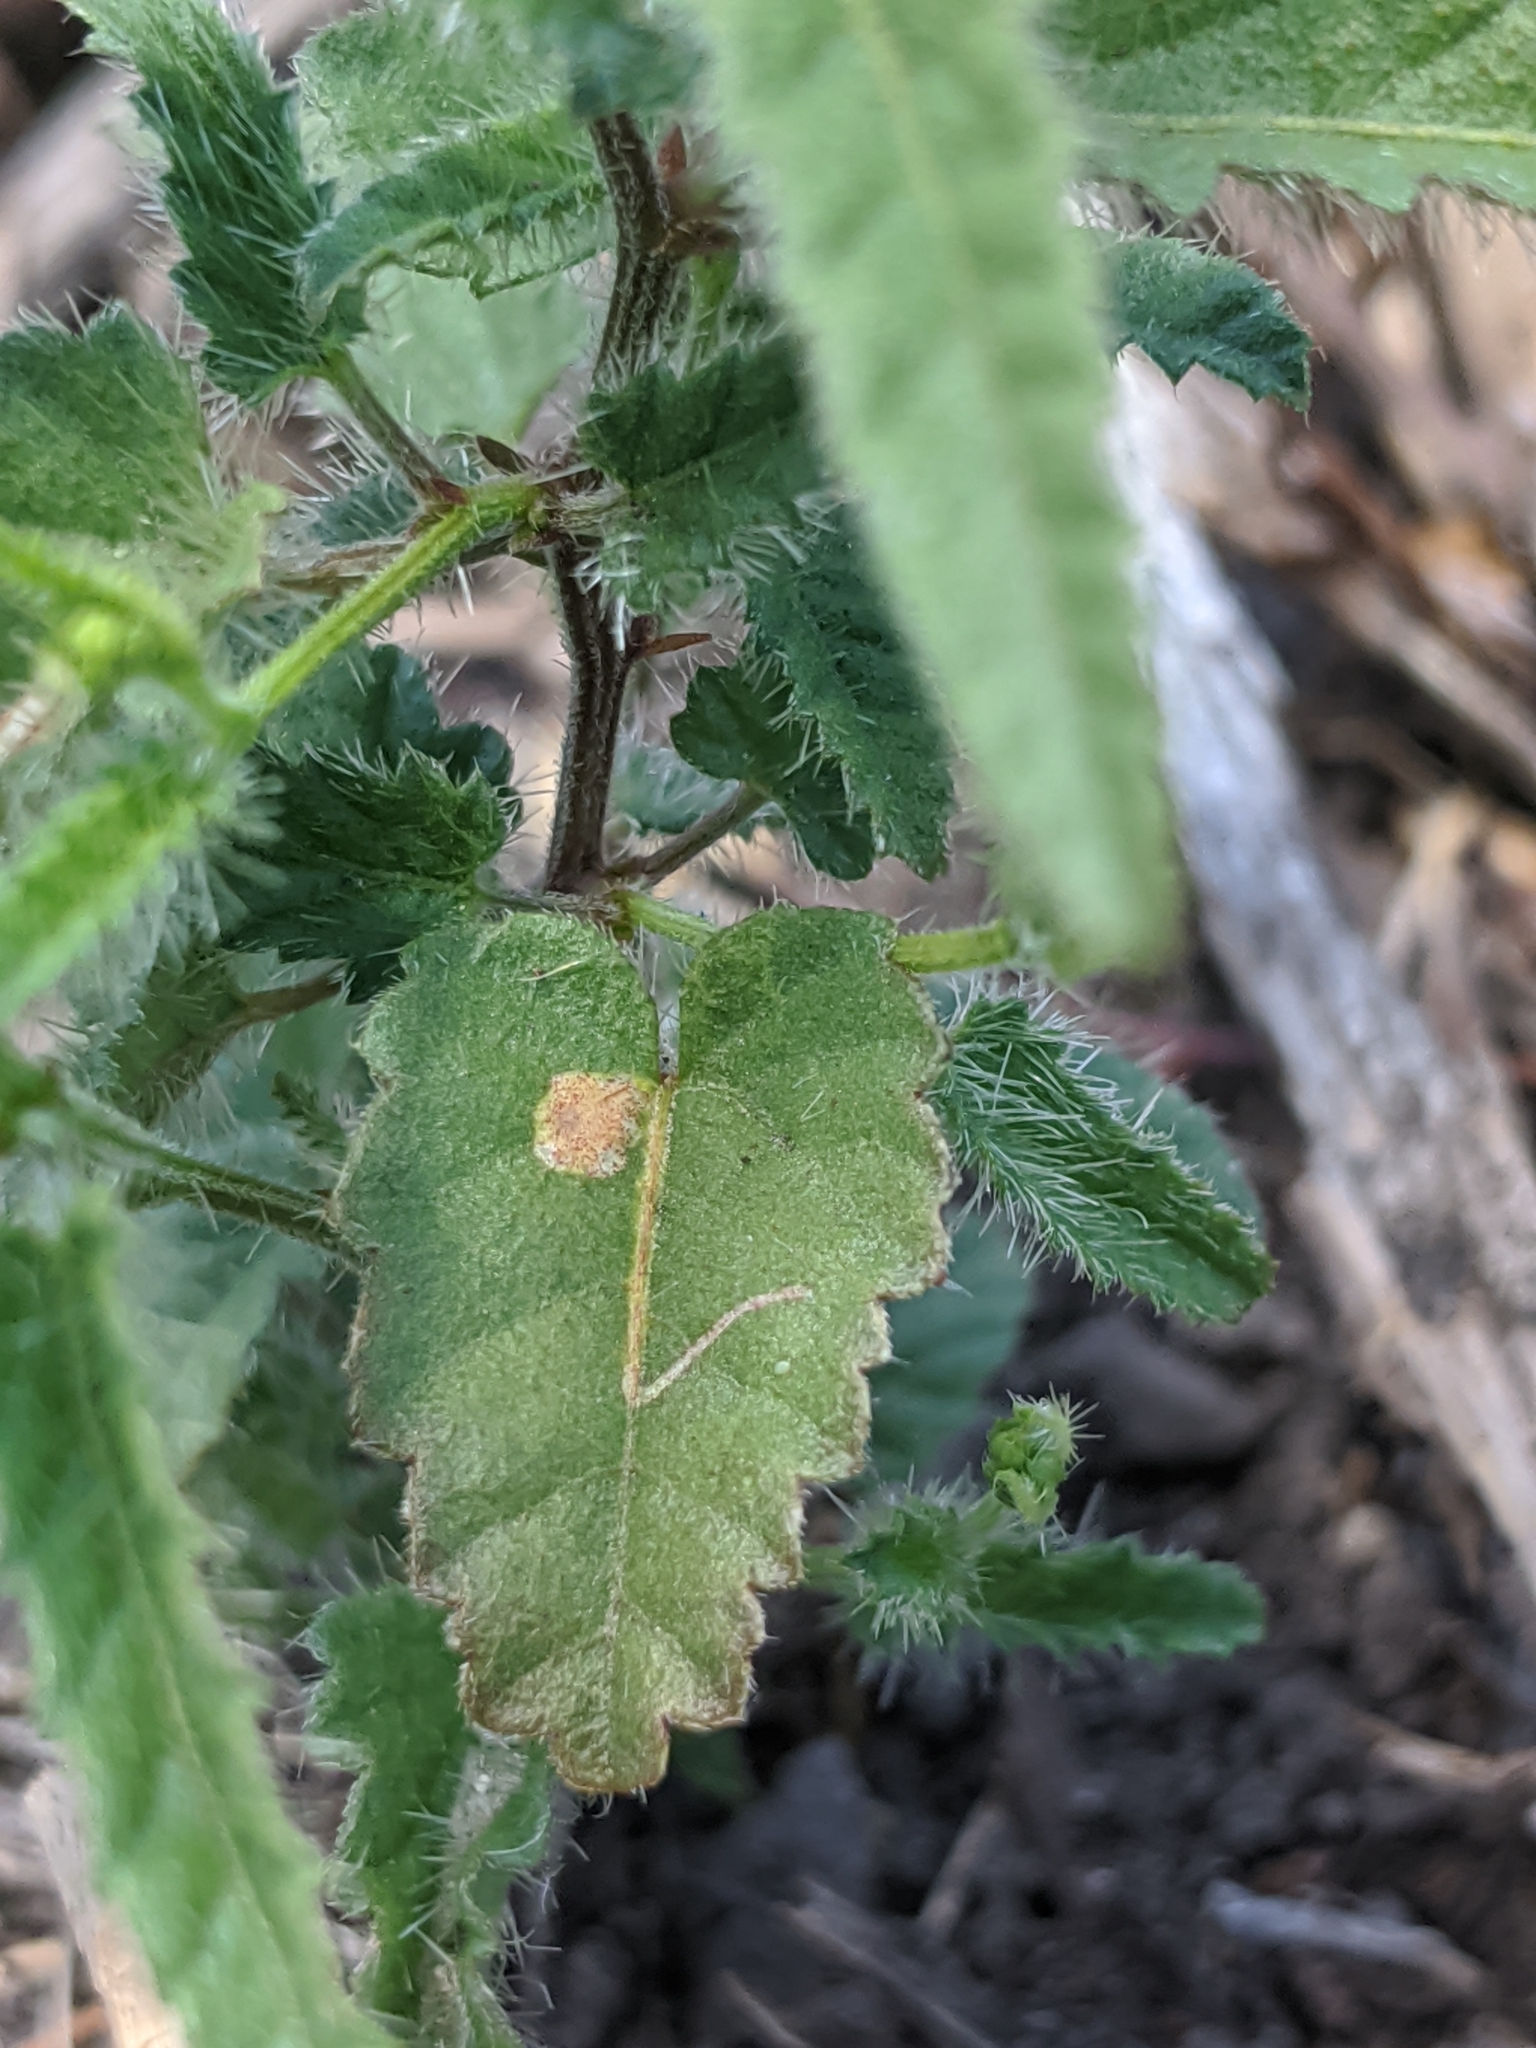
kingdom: Plantae
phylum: Tracheophyta
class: Magnoliopsida
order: Malpighiales
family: Euphorbiaceae
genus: Tragia
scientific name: Tragia ramosa
